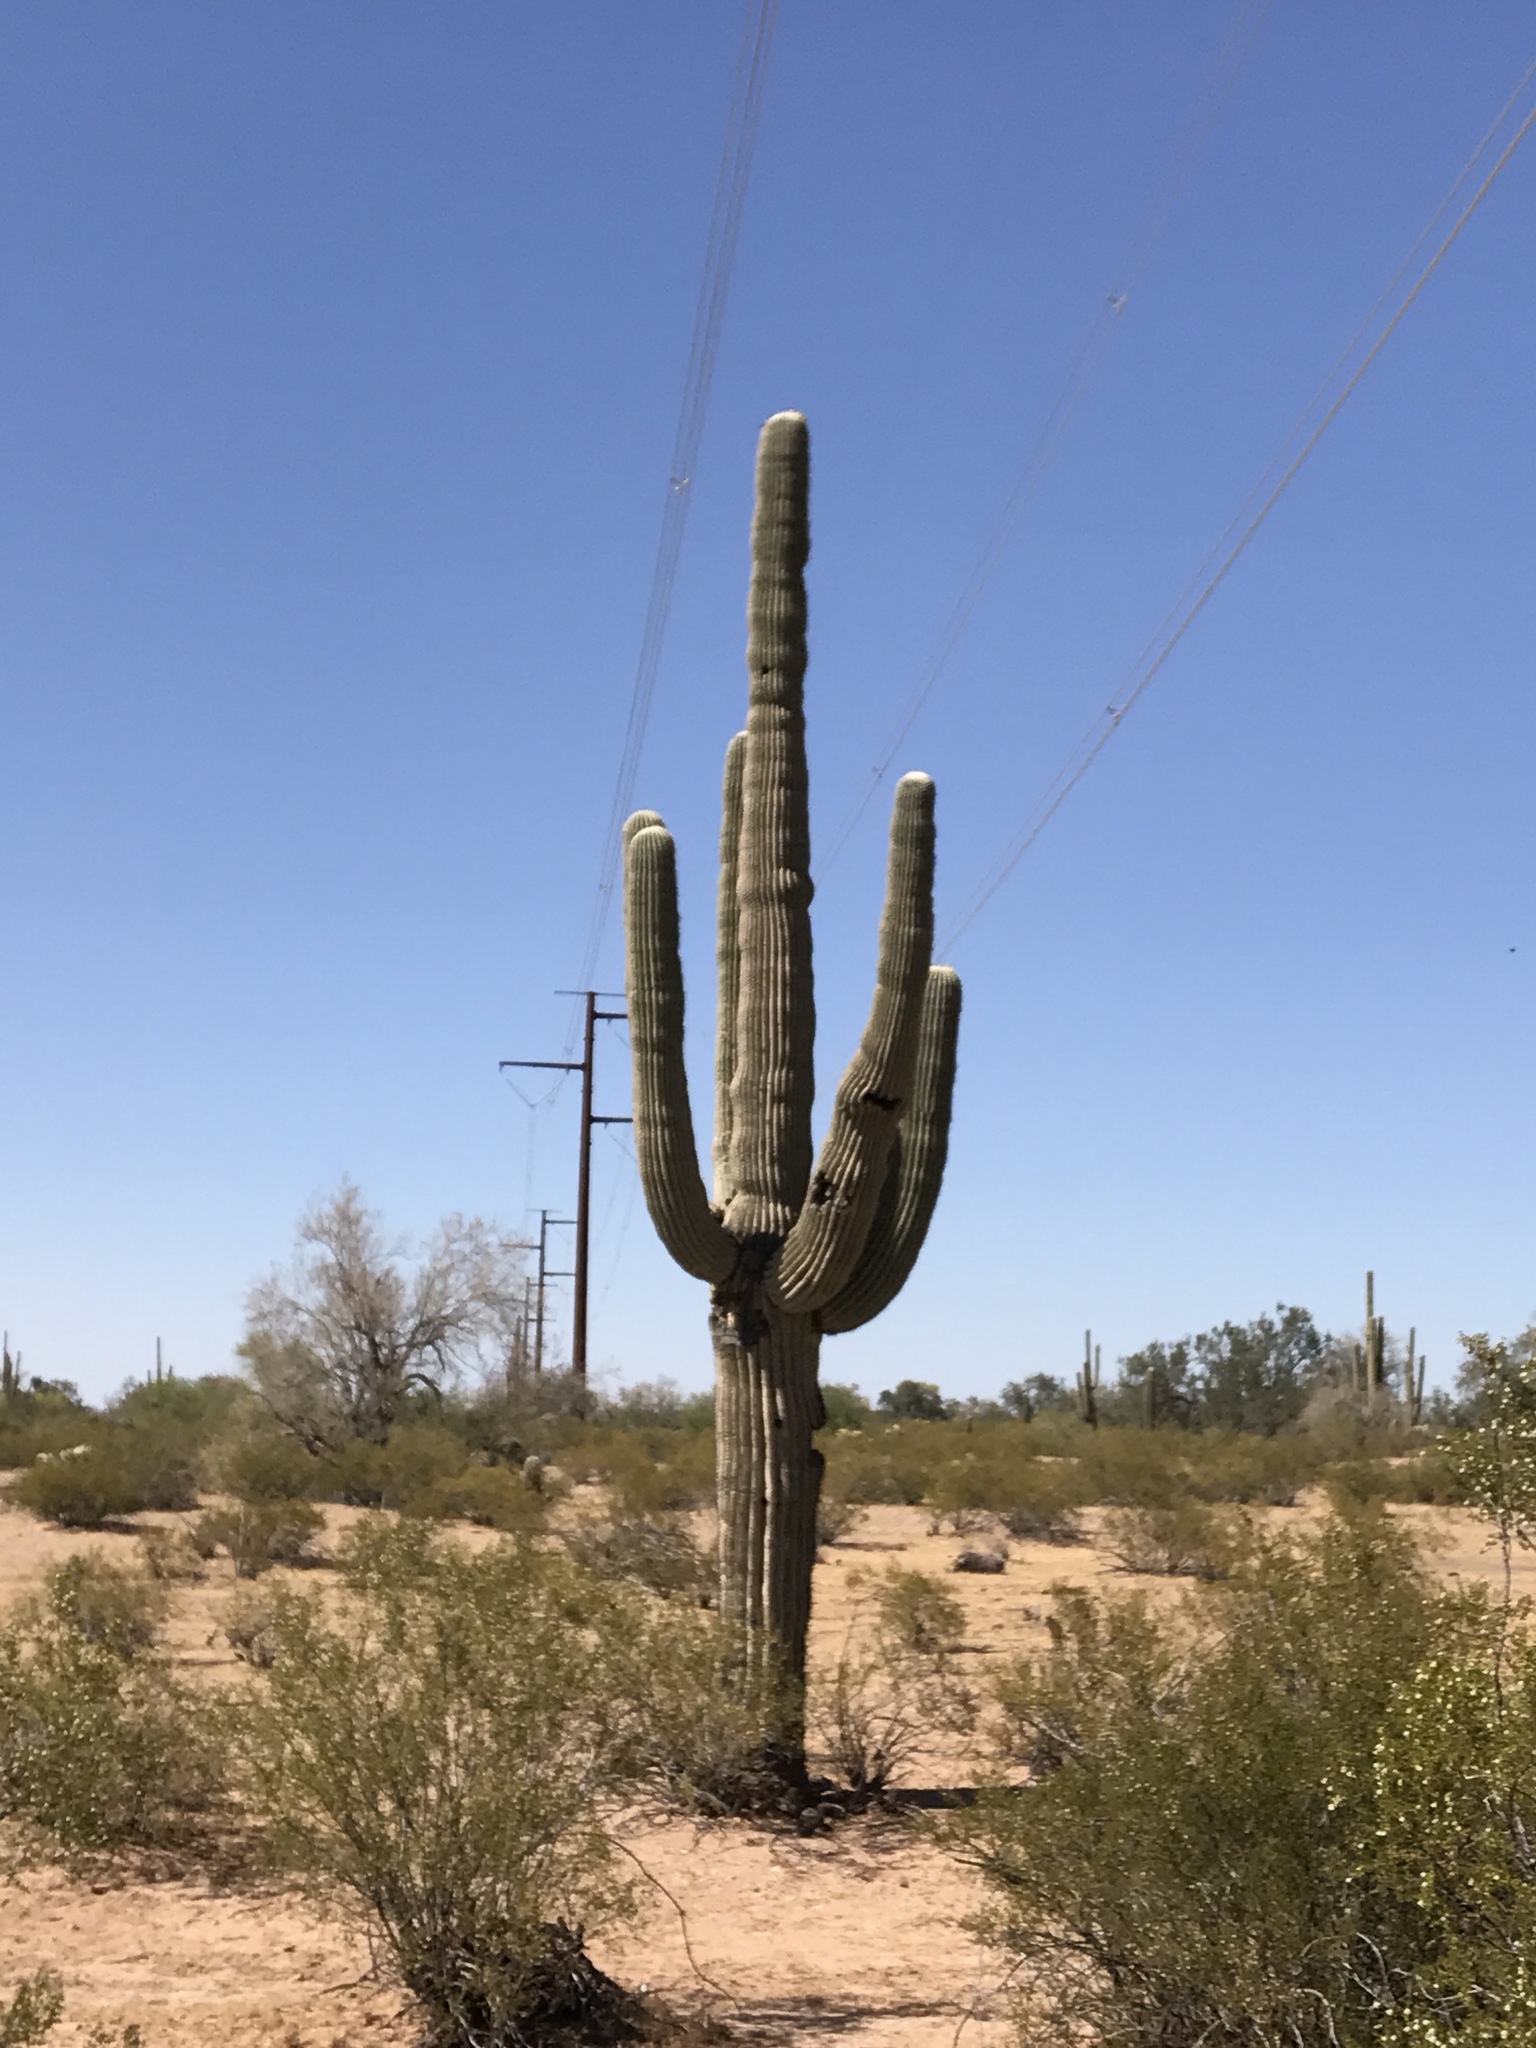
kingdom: Plantae
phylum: Tracheophyta
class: Magnoliopsida
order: Caryophyllales
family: Cactaceae
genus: Carnegiea
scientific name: Carnegiea gigantea
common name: Saguaro
